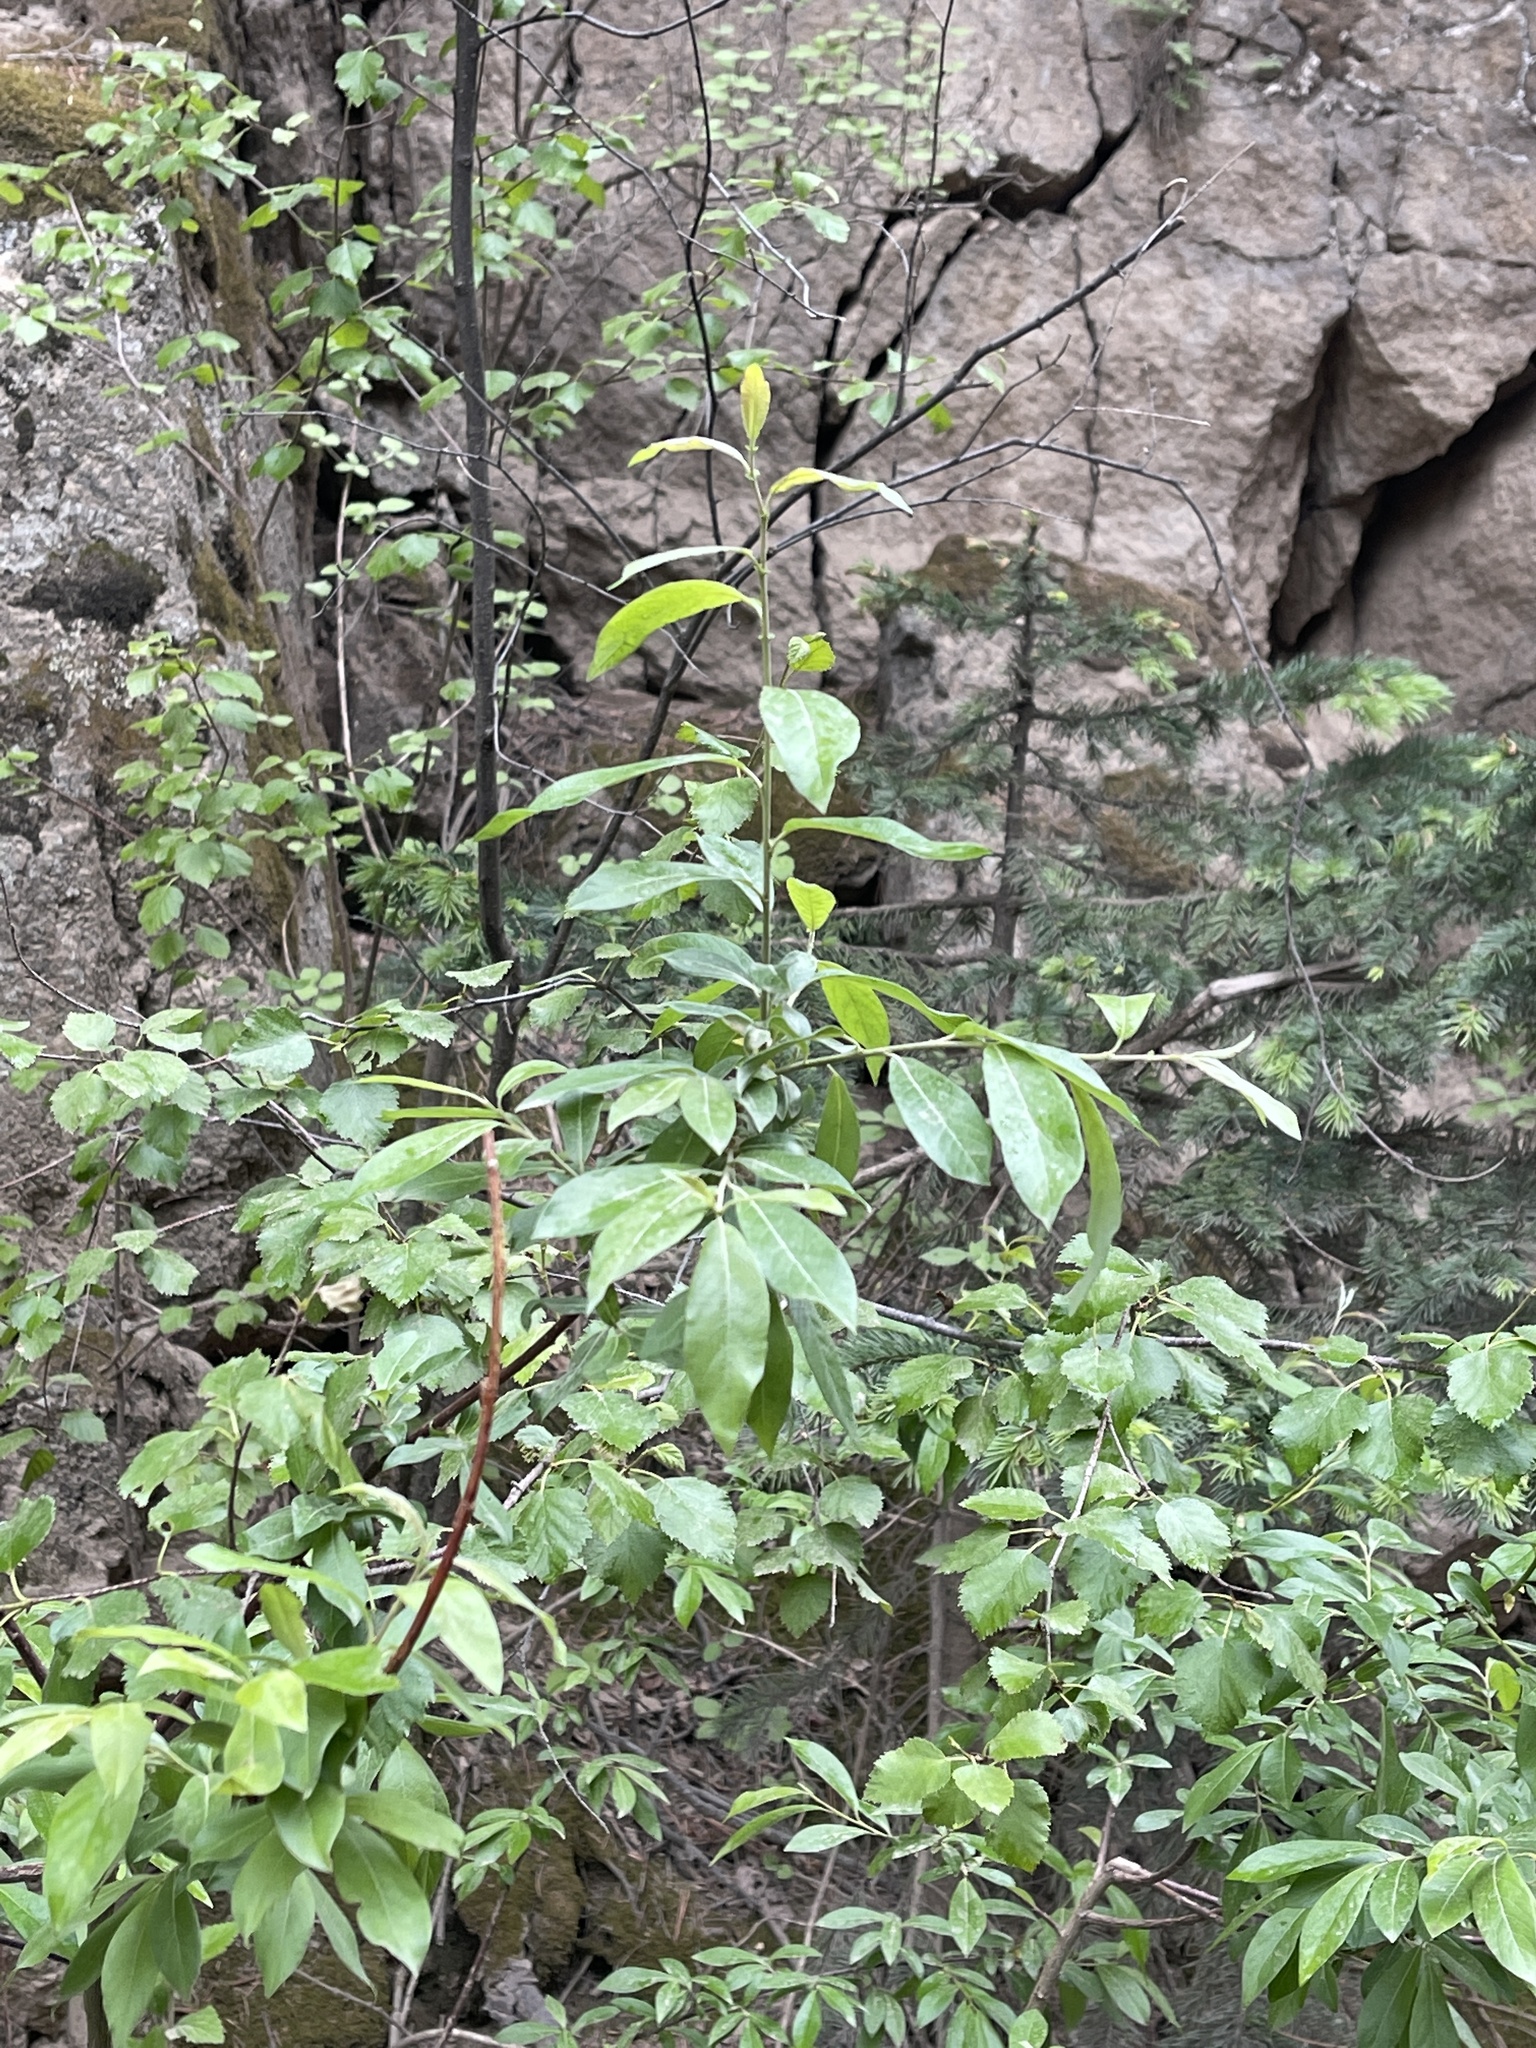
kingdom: Plantae
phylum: Tracheophyta
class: Magnoliopsida
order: Malpighiales
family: Salicaceae
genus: Salix
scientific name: Salix lasiolepis
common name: Arroyo willow
